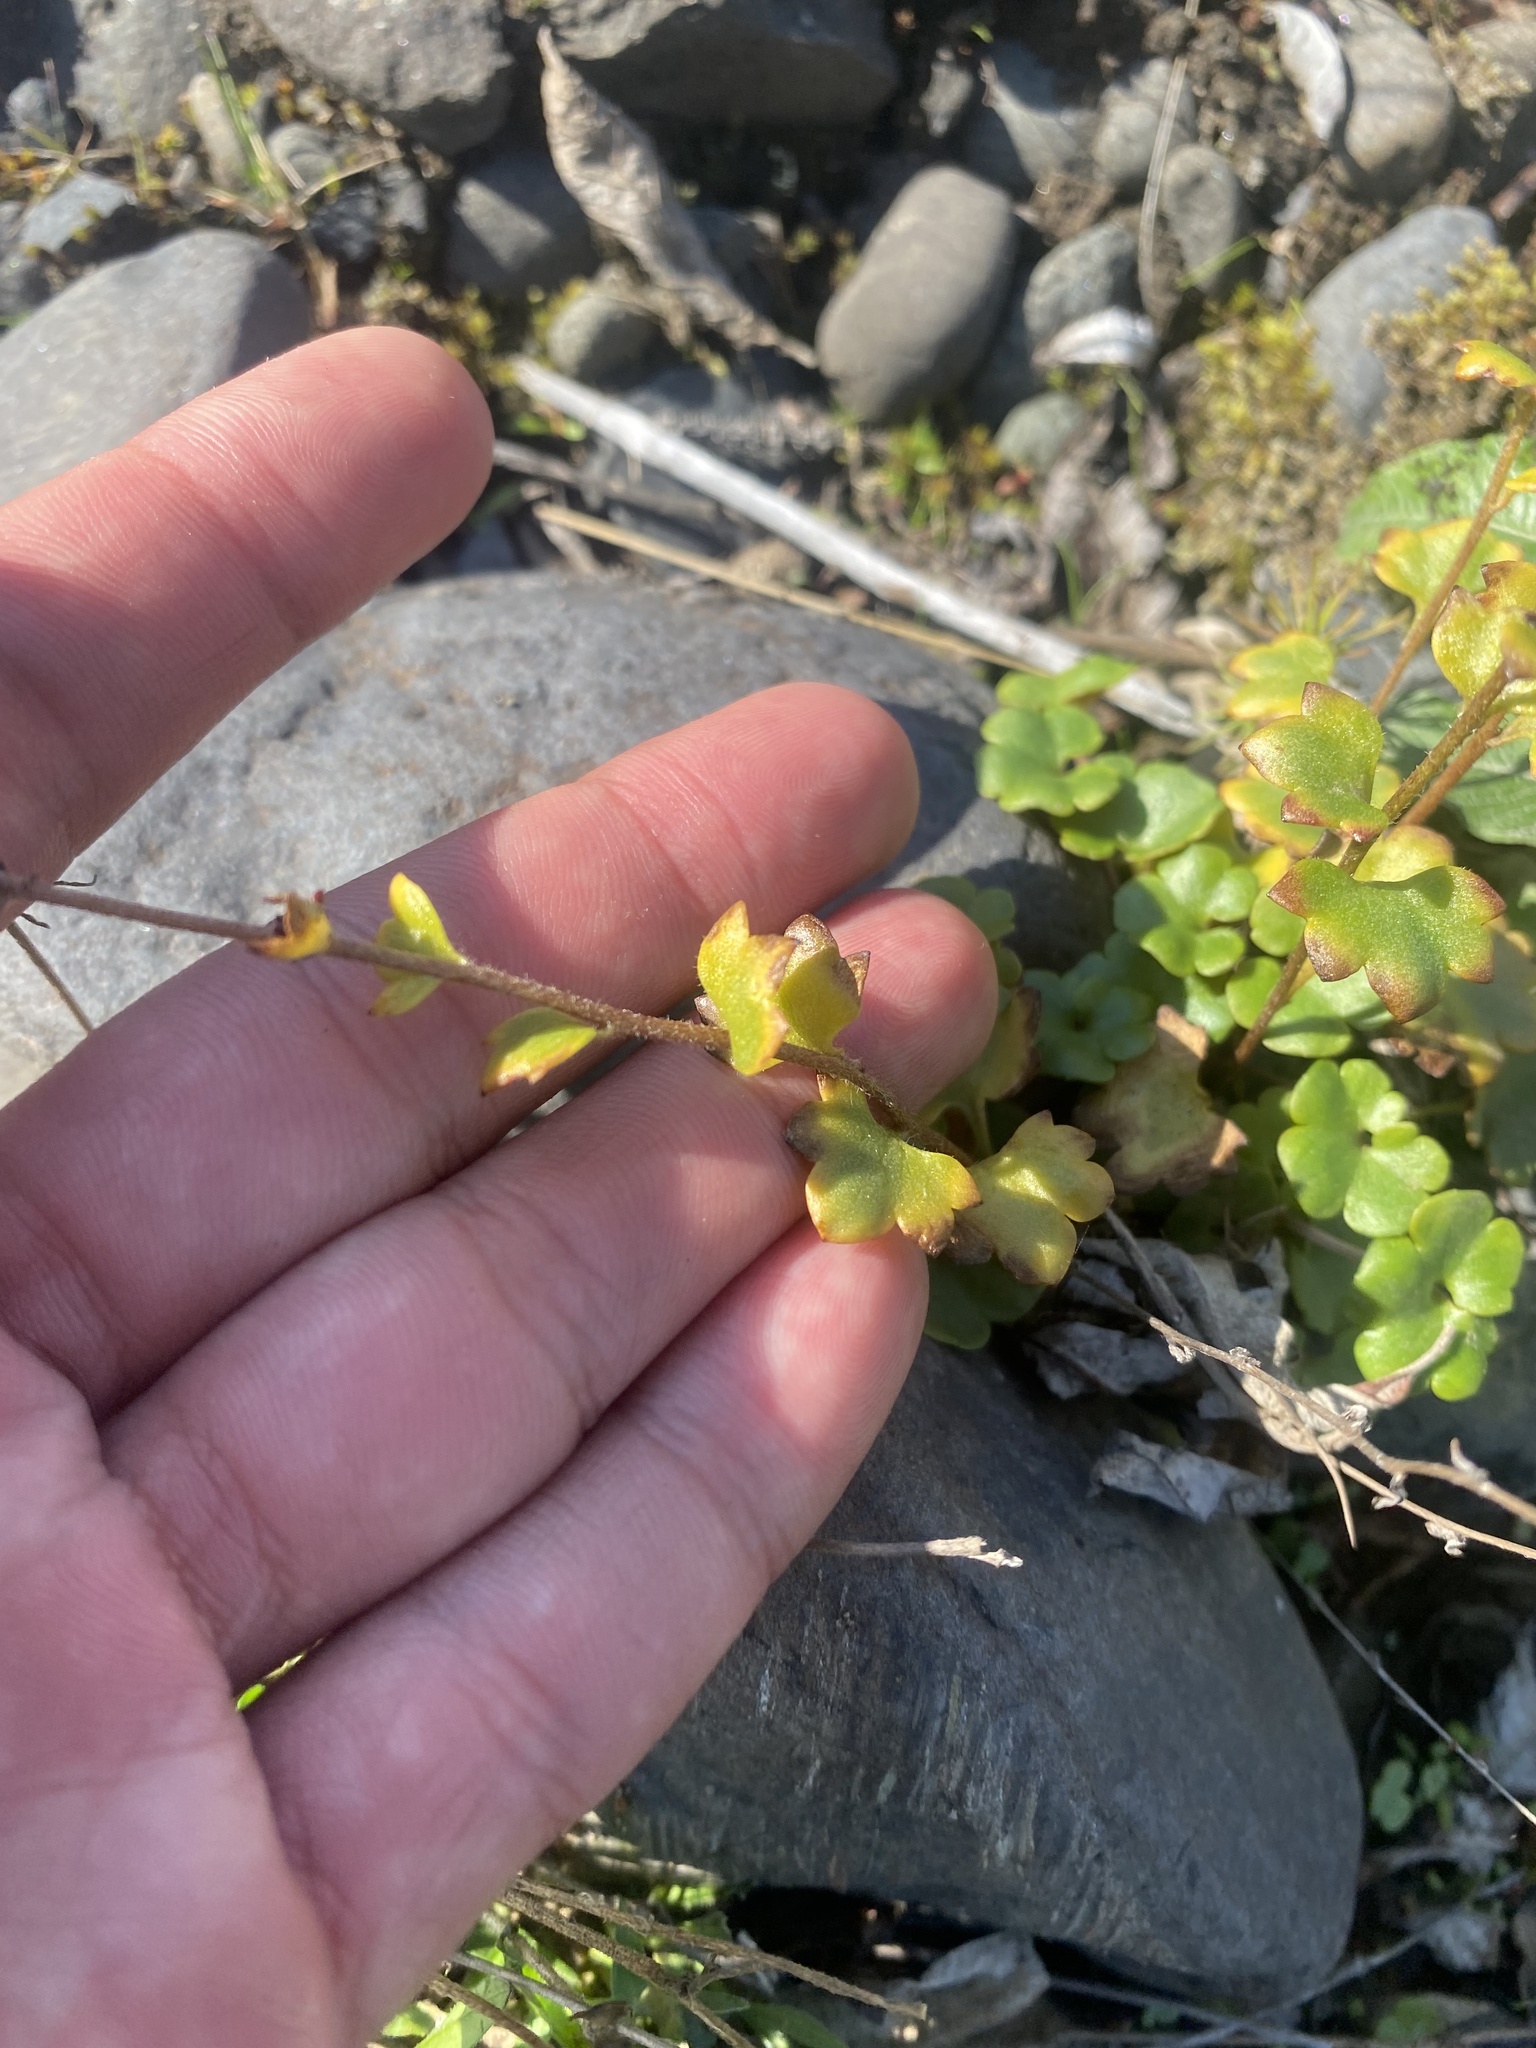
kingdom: Plantae
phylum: Tracheophyta
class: Magnoliopsida
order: Saxifragales
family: Saxifragaceae
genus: Saxifraga
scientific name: Saxifraga cernua
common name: Drooping saxifrage
